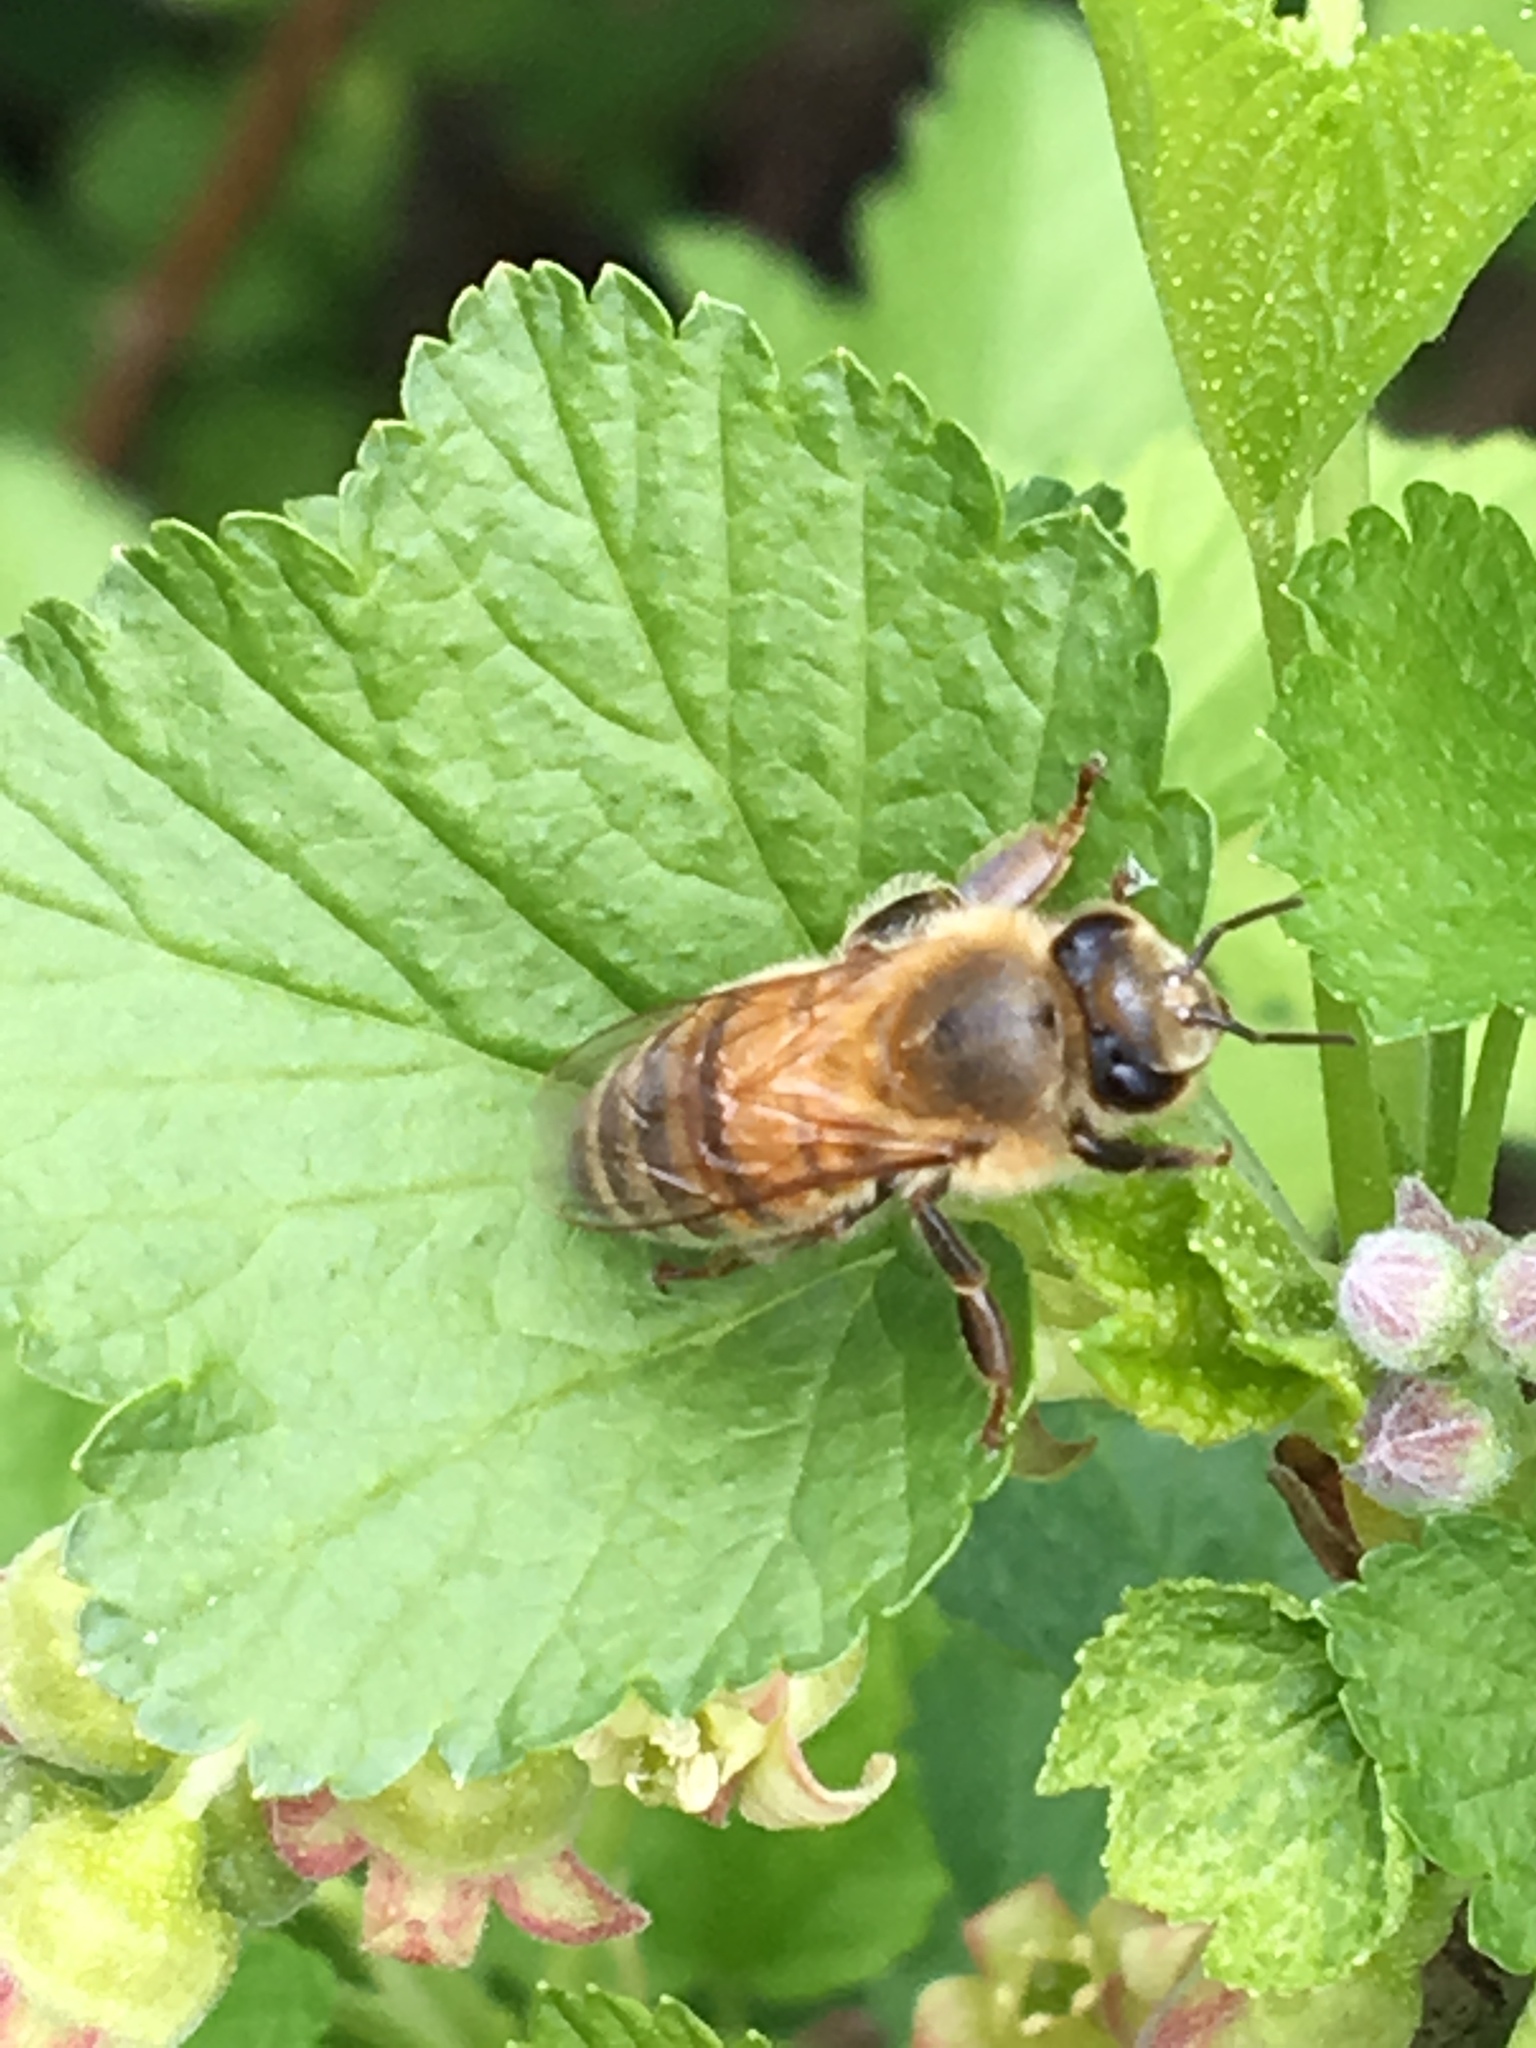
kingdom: Animalia
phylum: Arthropoda
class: Insecta
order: Hymenoptera
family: Apidae
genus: Apis
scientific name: Apis mellifera
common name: Honey bee
